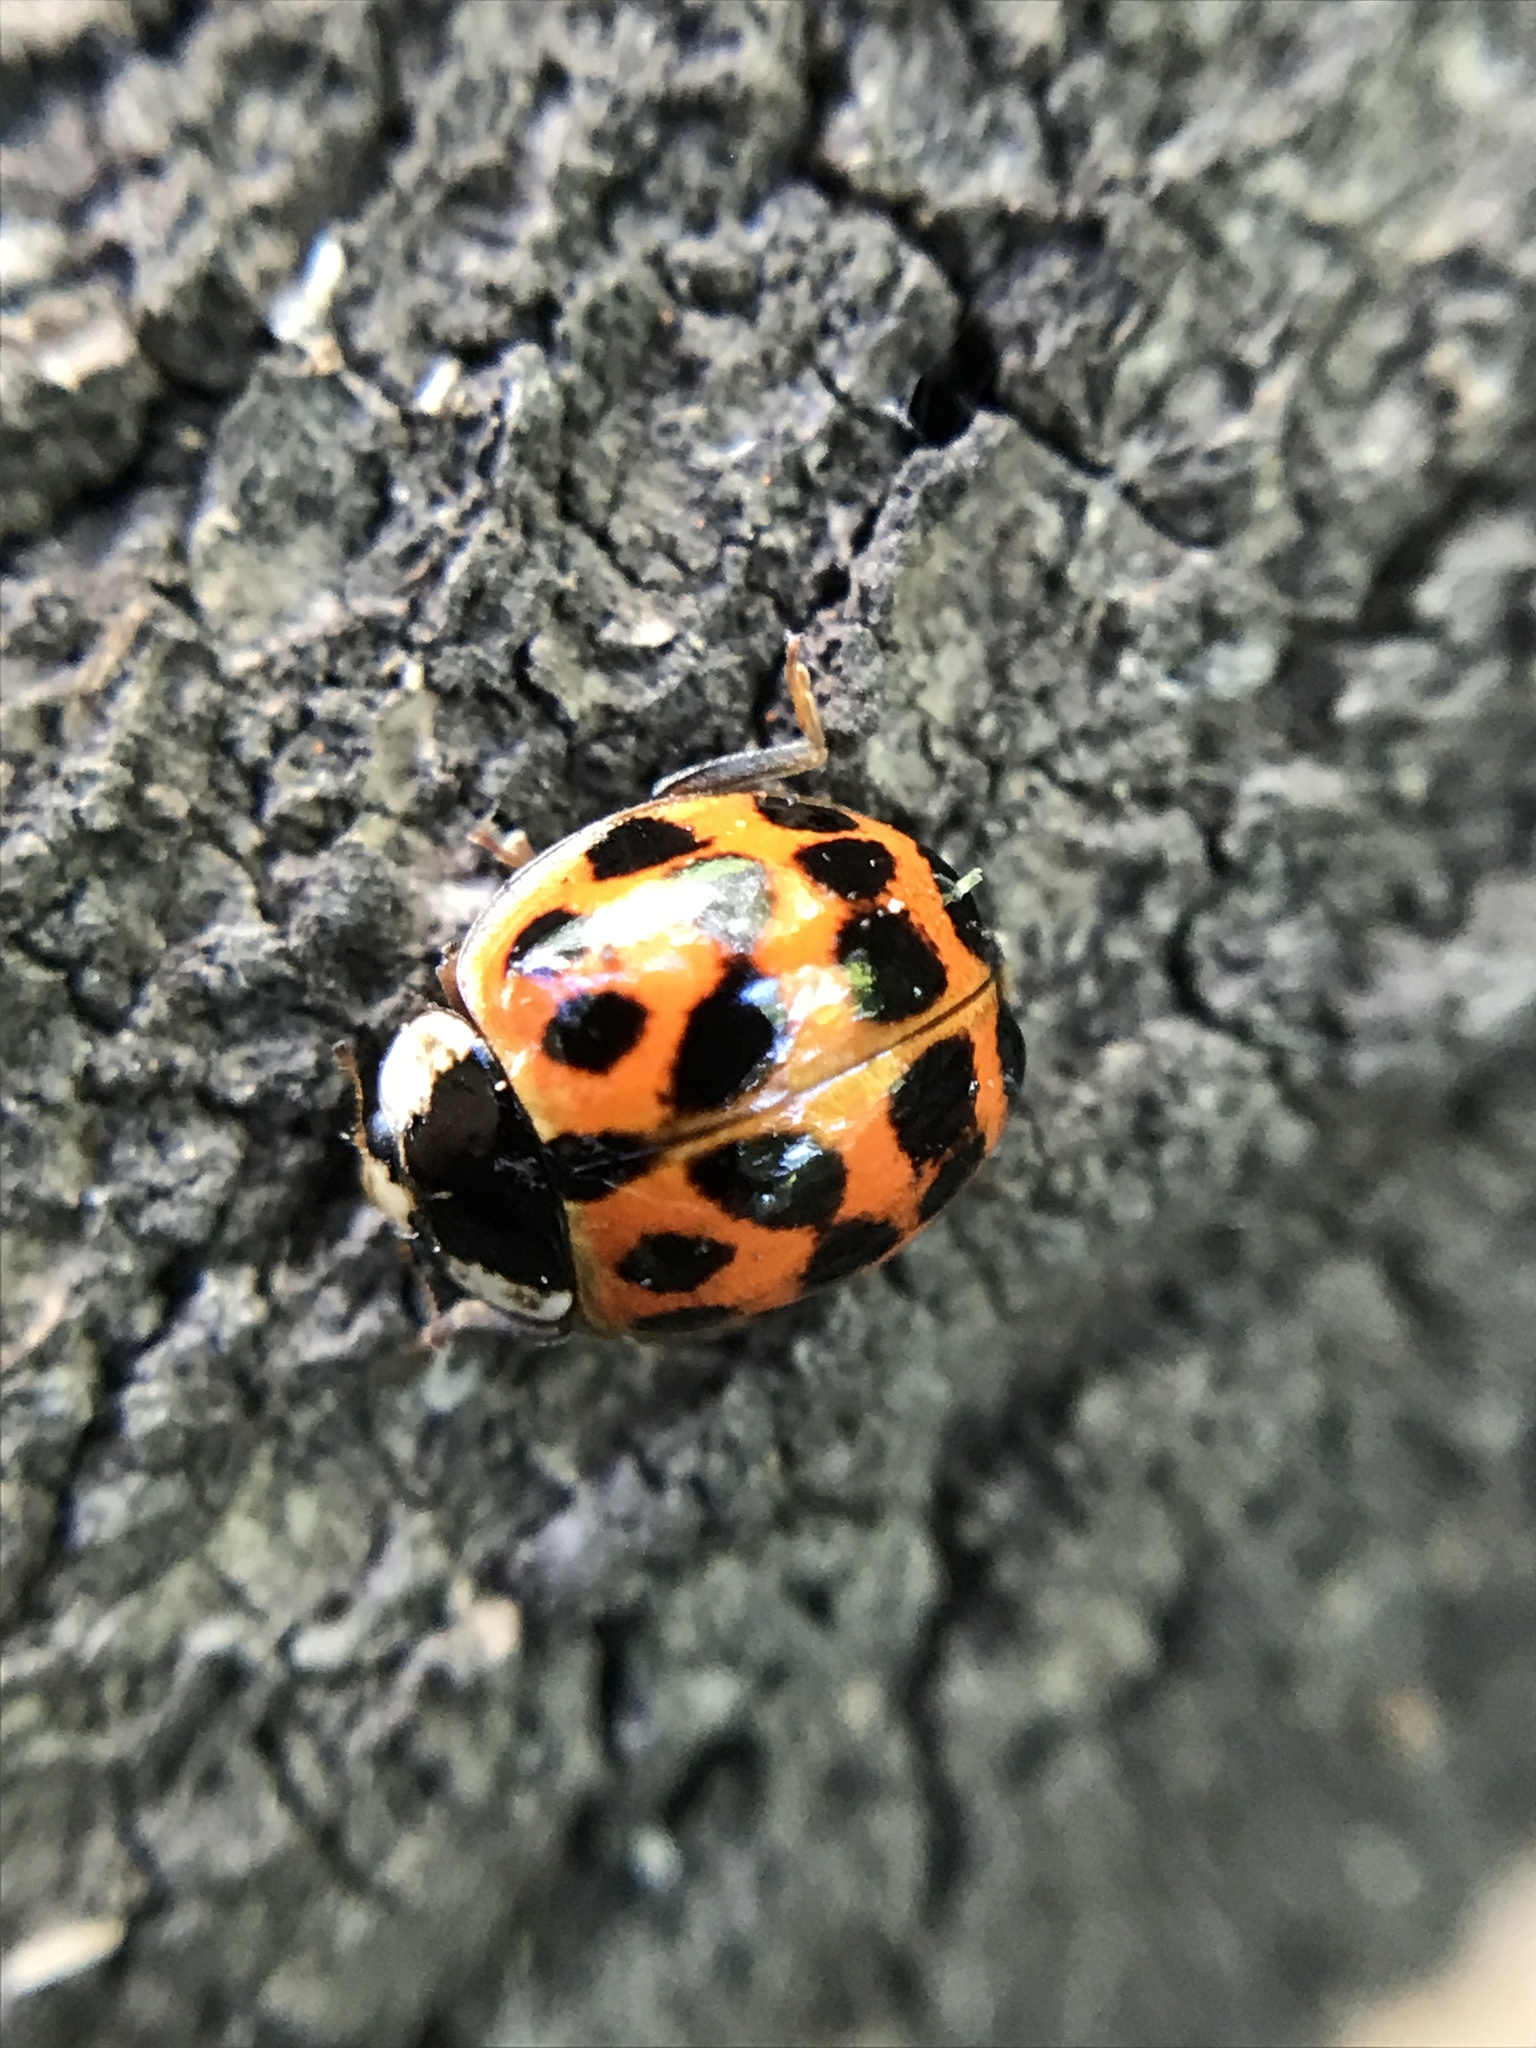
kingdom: Animalia
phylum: Arthropoda
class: Insecta
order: Coleoptera
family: Coccinellidae
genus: Harmonia
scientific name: Harmonia axyridis
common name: Harlequin ladybird
